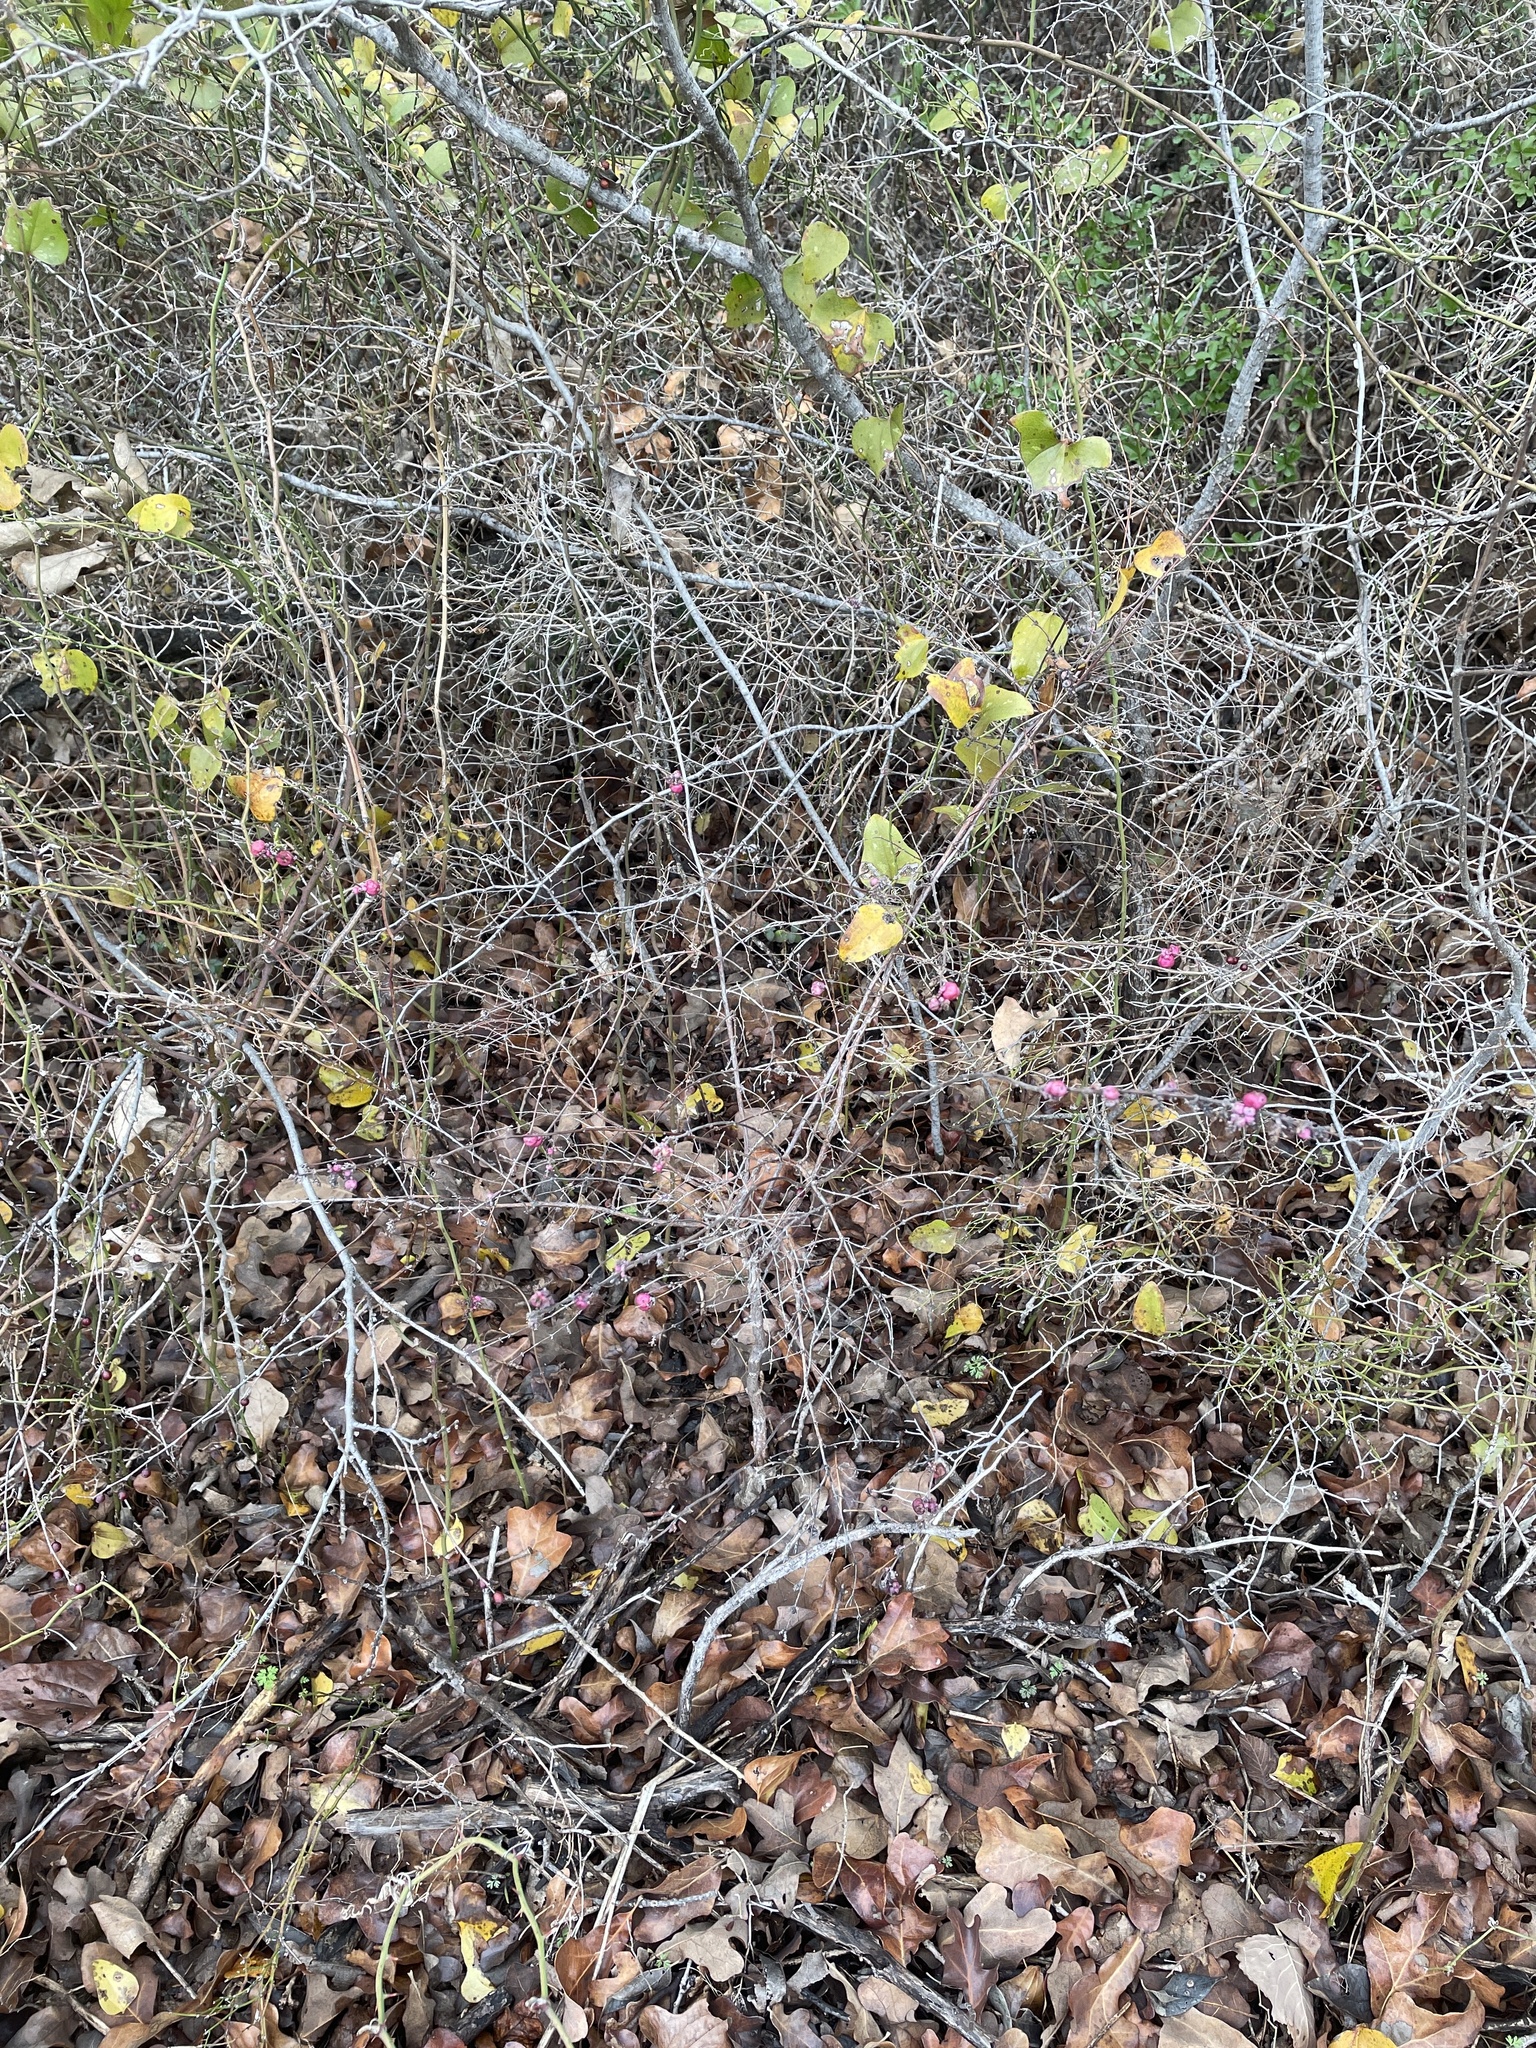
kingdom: Plantae
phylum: Tracheophyta
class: Magnoliopsida
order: Dipsacales
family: Caprifoliaceae
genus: Symphoricarpos
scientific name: Symphoricarpos orbiculatus
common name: Coralberry
